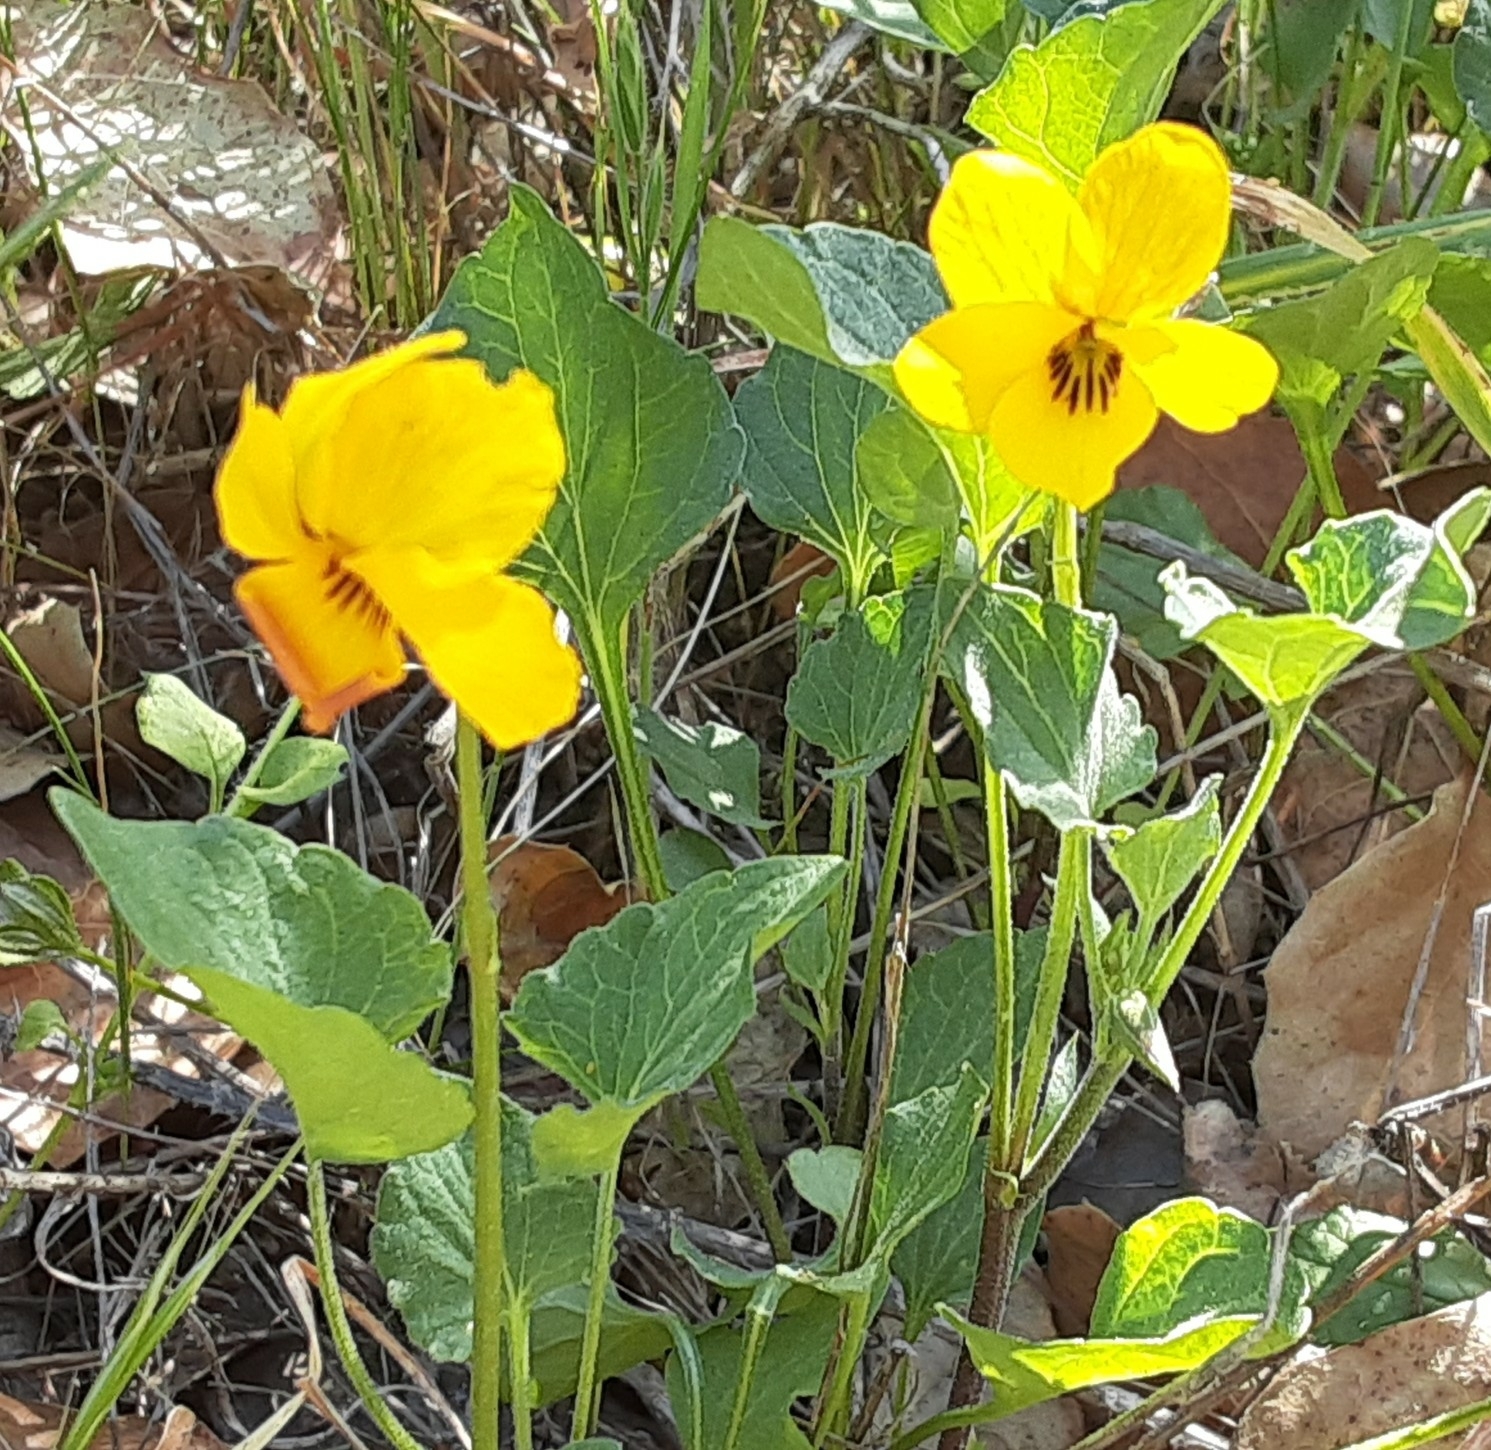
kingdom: Plantae
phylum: Tracheophyta
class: Magnoliopsida
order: Malpighiales
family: Violaceae
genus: Viola
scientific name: Viola pedunculata
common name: California golden violet
